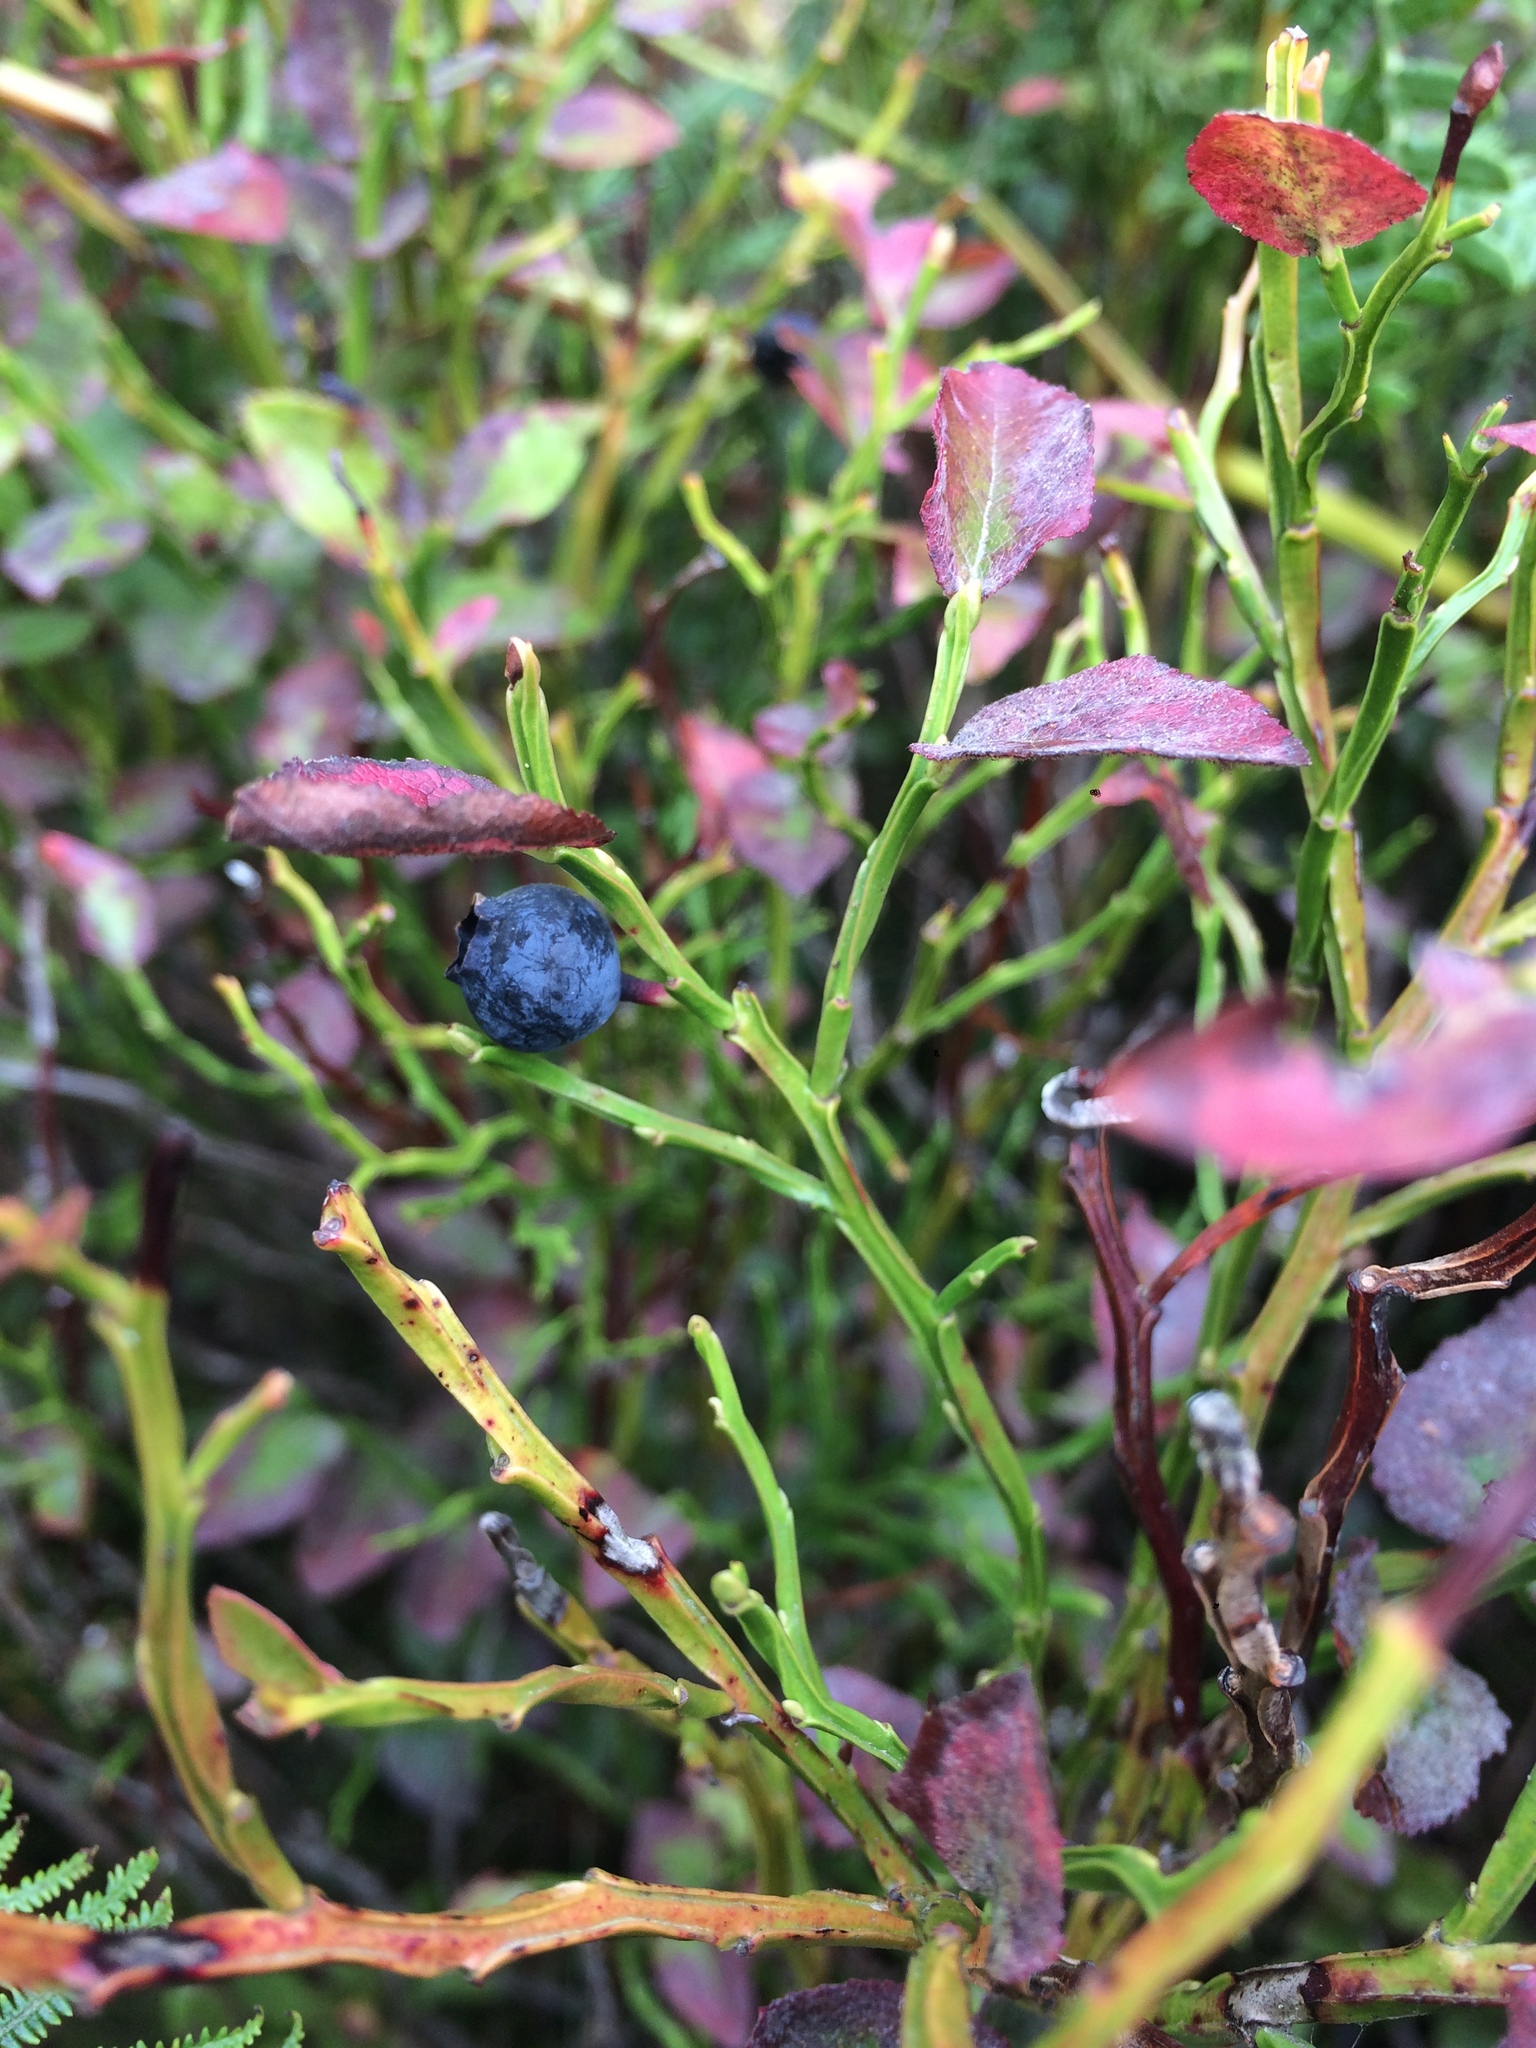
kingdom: Plantae
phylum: Tracheophyta
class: Magnoliopsida
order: Ericales
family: Ericaceae
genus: Vaccinium
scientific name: Vaccinium myrtillus
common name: Bilberry
